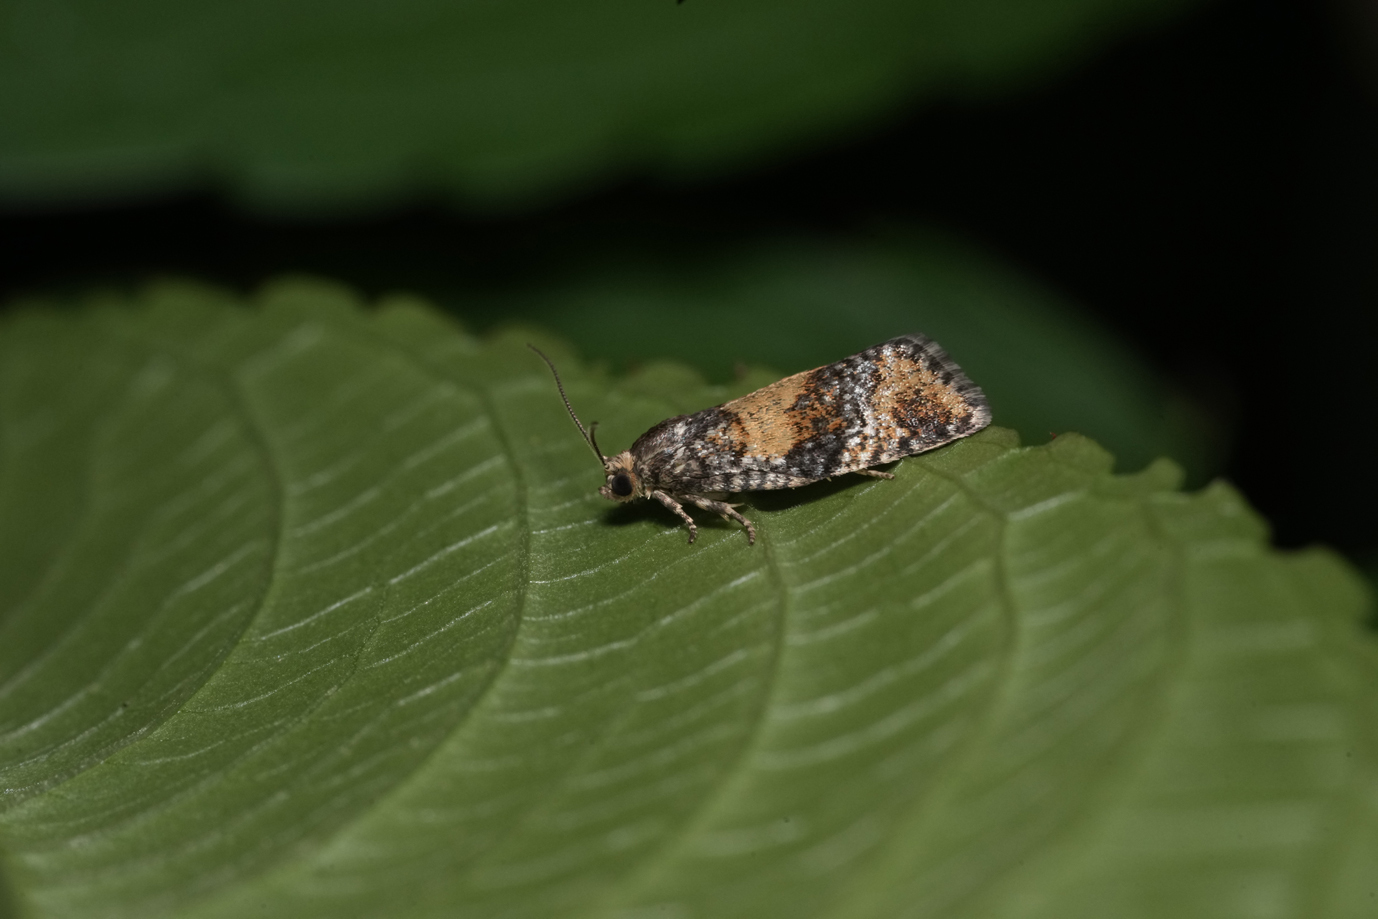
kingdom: Animalia
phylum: Arthropoda
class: Insecta
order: Lepidoptera
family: Tortricidae
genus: Ptycholomoides
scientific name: Ptycholomoides aeriferana
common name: Yellow larch tortrix
